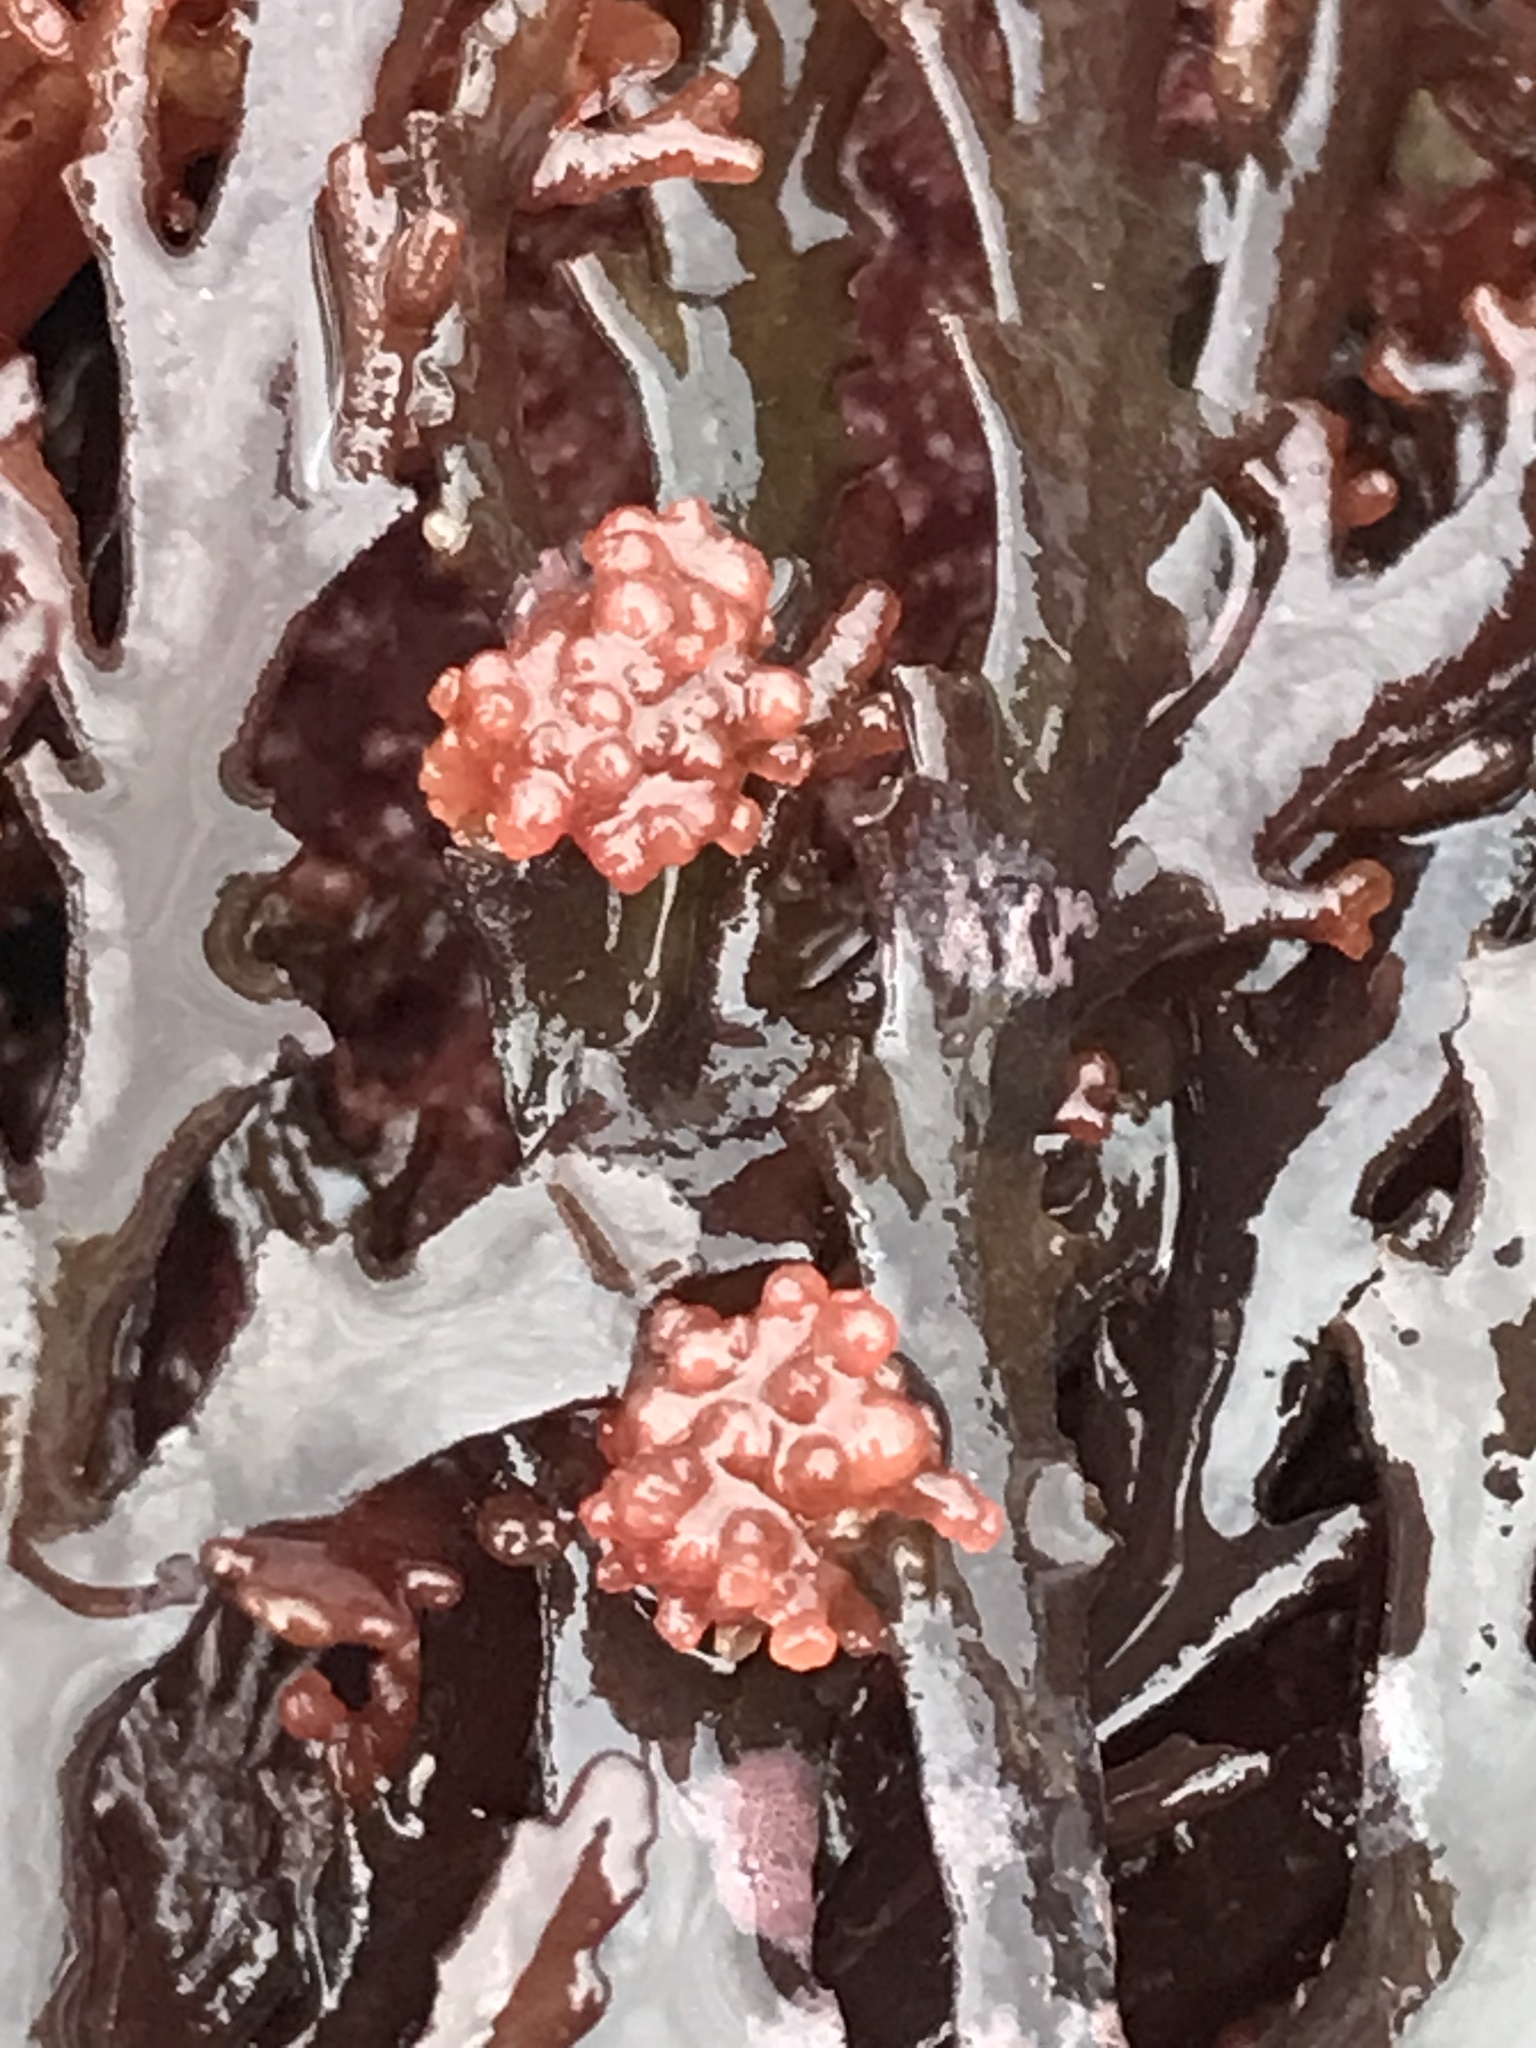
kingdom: Plantae
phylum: Rhodophyta
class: Florideophyceae
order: Ceramiales
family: Rhodomelaceae
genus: Osmundea
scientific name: Osmundea spectabilis
